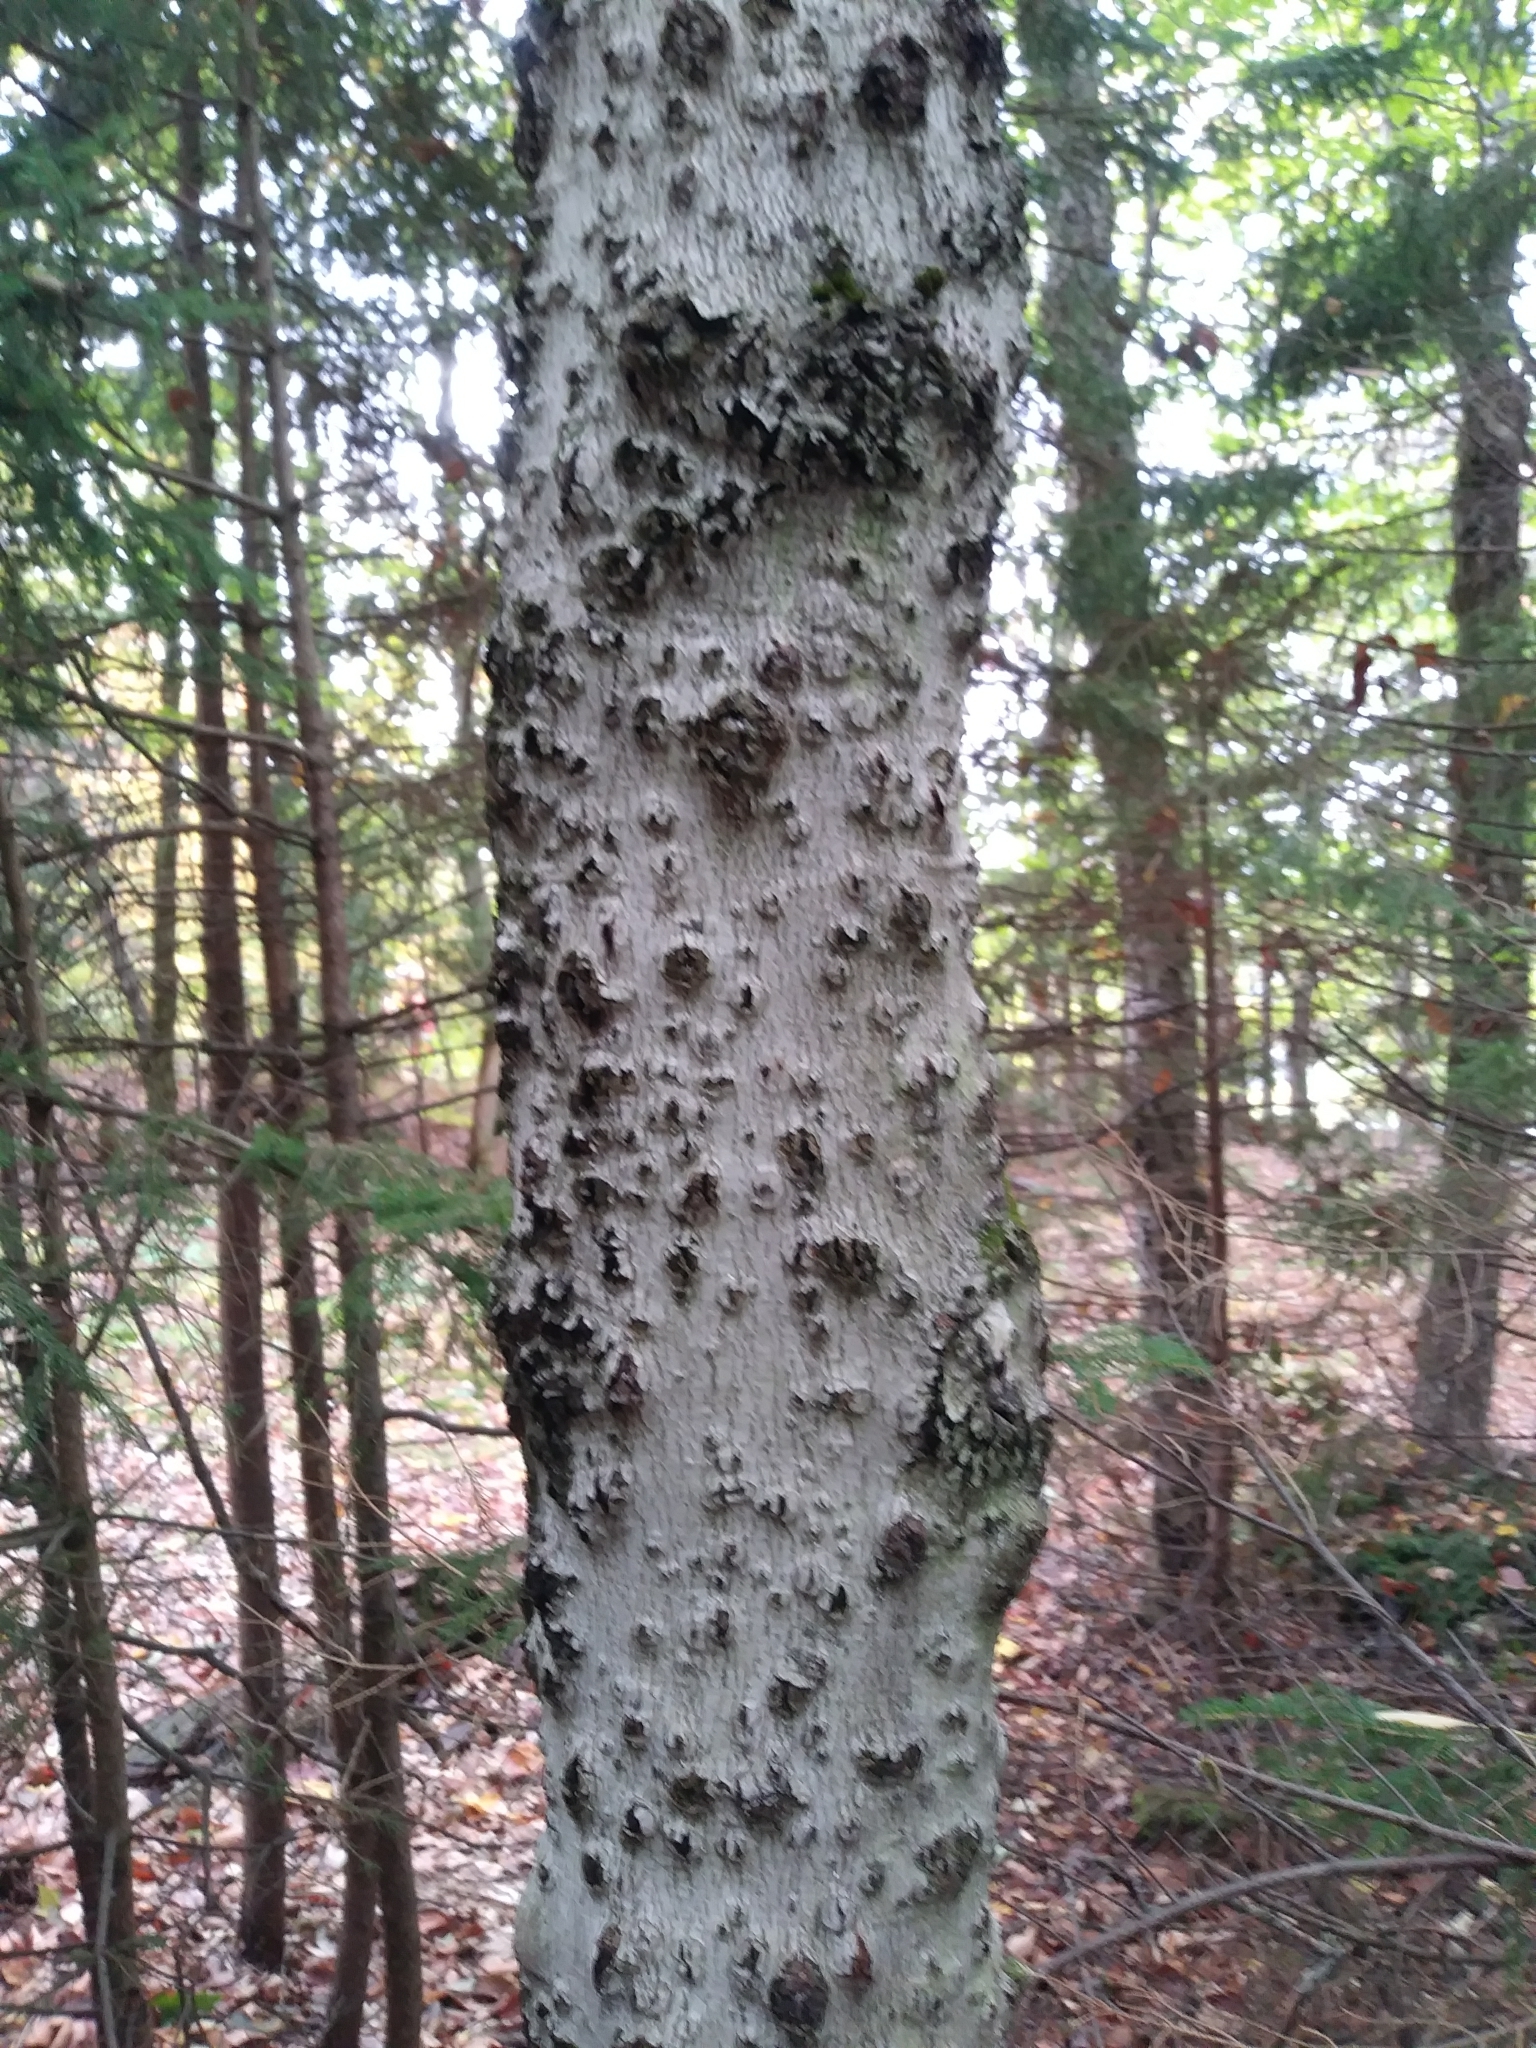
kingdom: Plantae
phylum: Tracheophyta
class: Magnoliopsida
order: Fagales
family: Fagaceae
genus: Fagus
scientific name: Fagus grandifolia
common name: American beech
